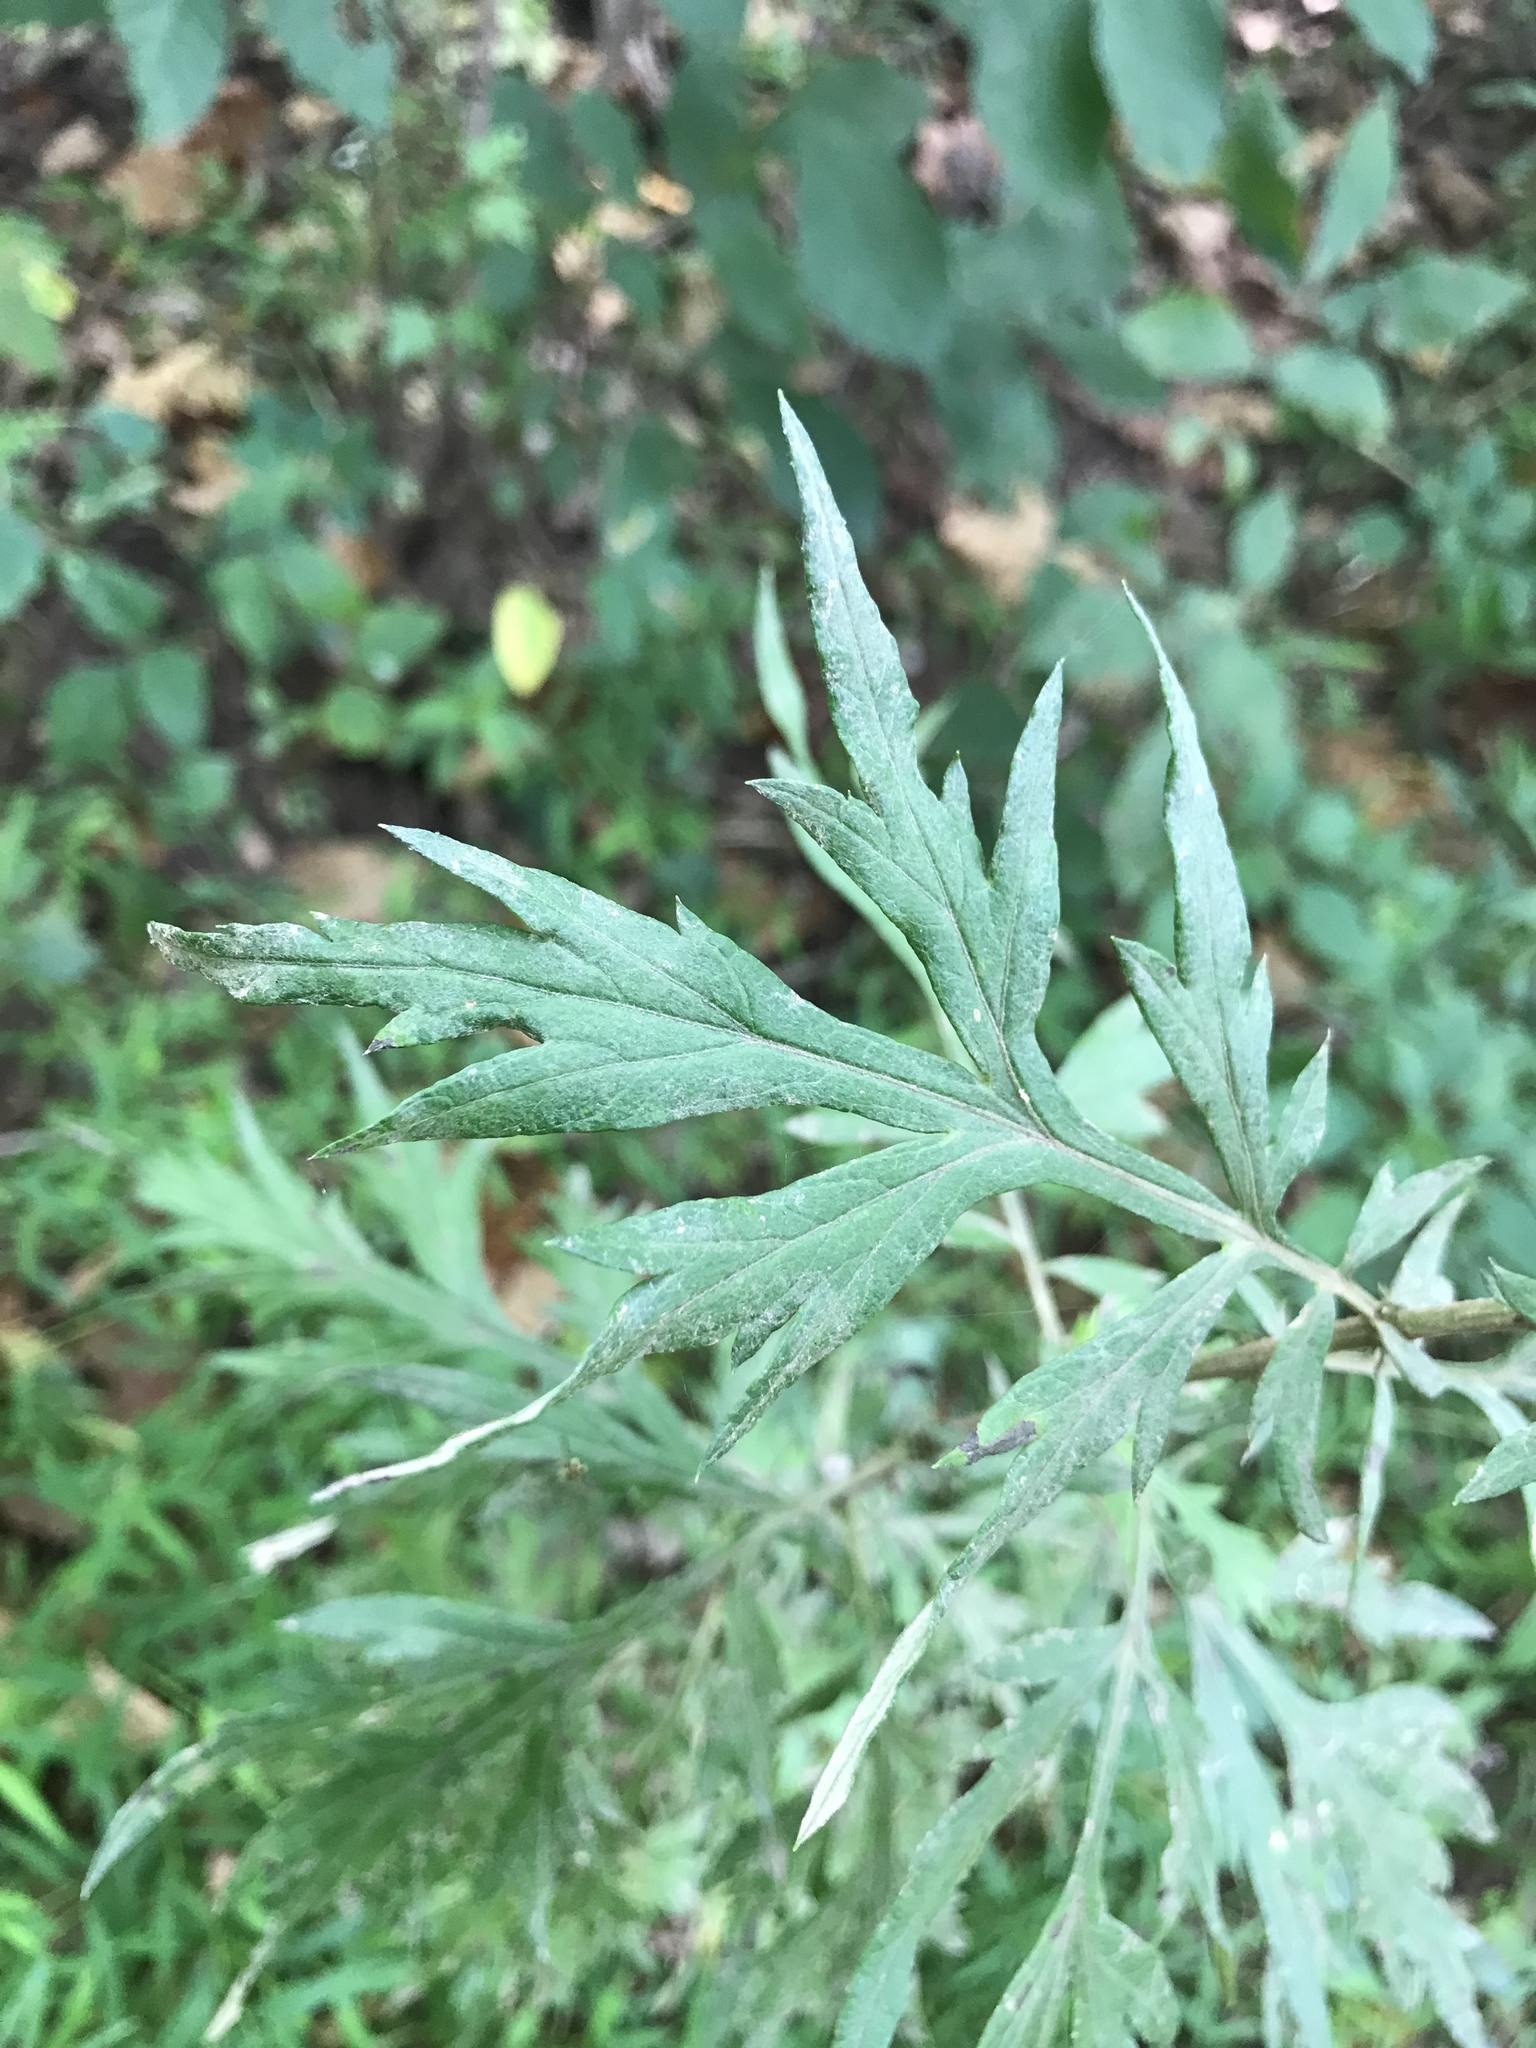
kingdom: Plantae
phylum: Tracheophyta
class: Magnoliopsida
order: Asterales
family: Asteraceae
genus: Artemisia
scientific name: Artemisia vulgaris
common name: Mugwort
